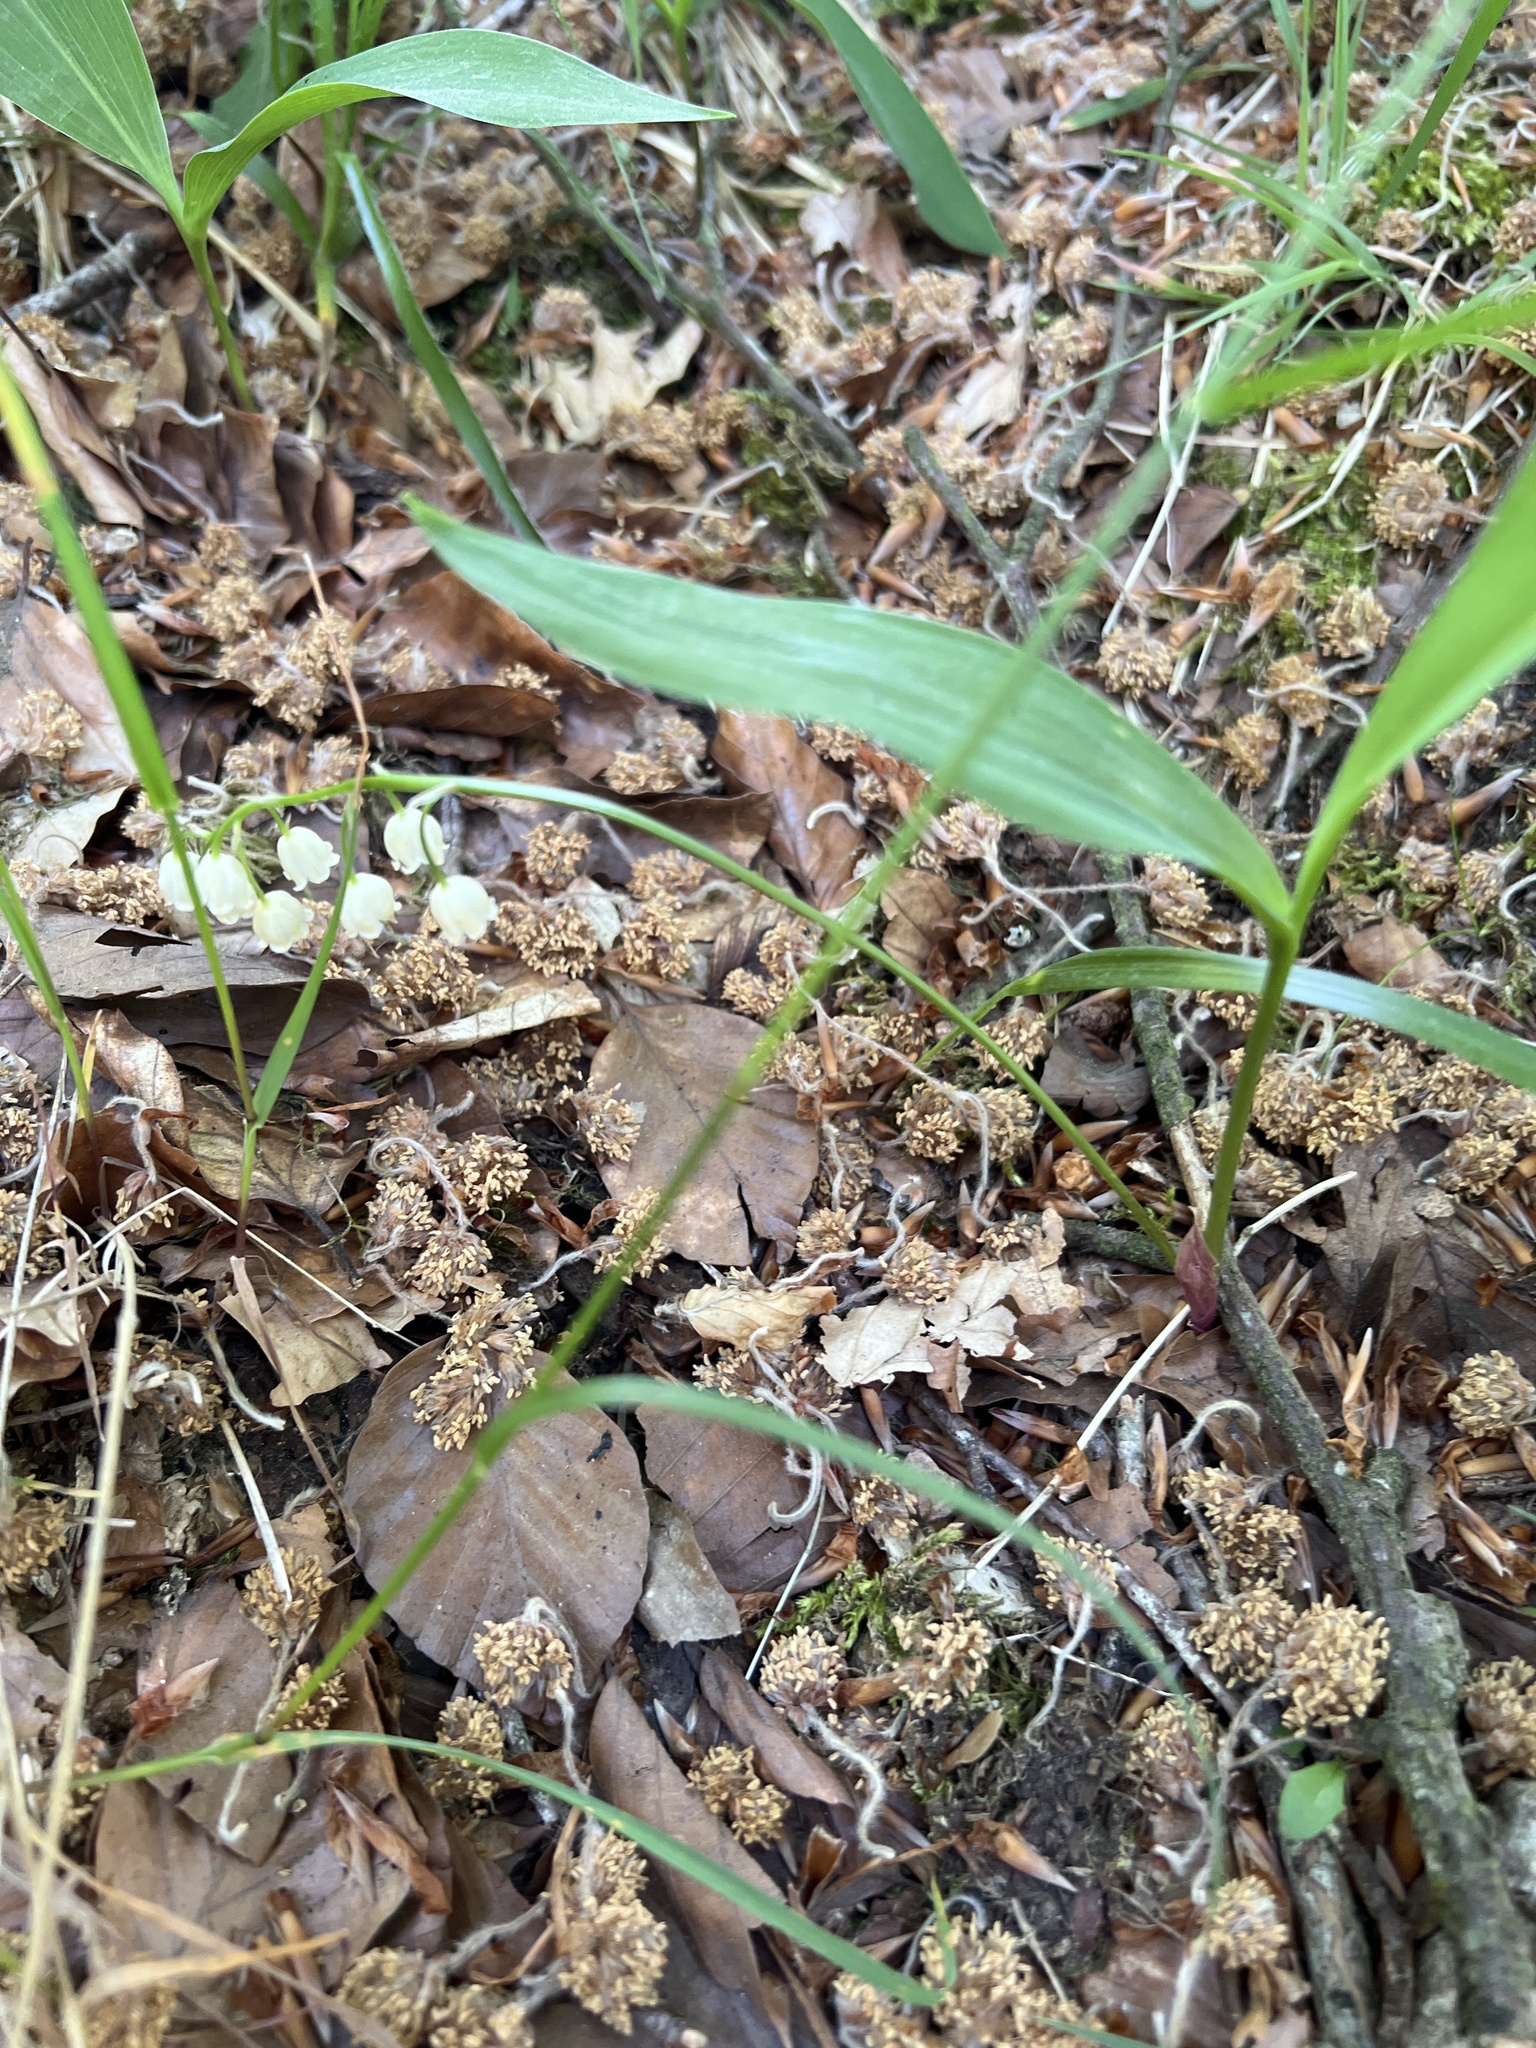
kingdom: Plantae
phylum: Tracheophyta
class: Liliopsida
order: Asparagales
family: Asparagaceae
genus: Convallaria
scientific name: Convallaria majalis
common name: Lily-of-the-valley
